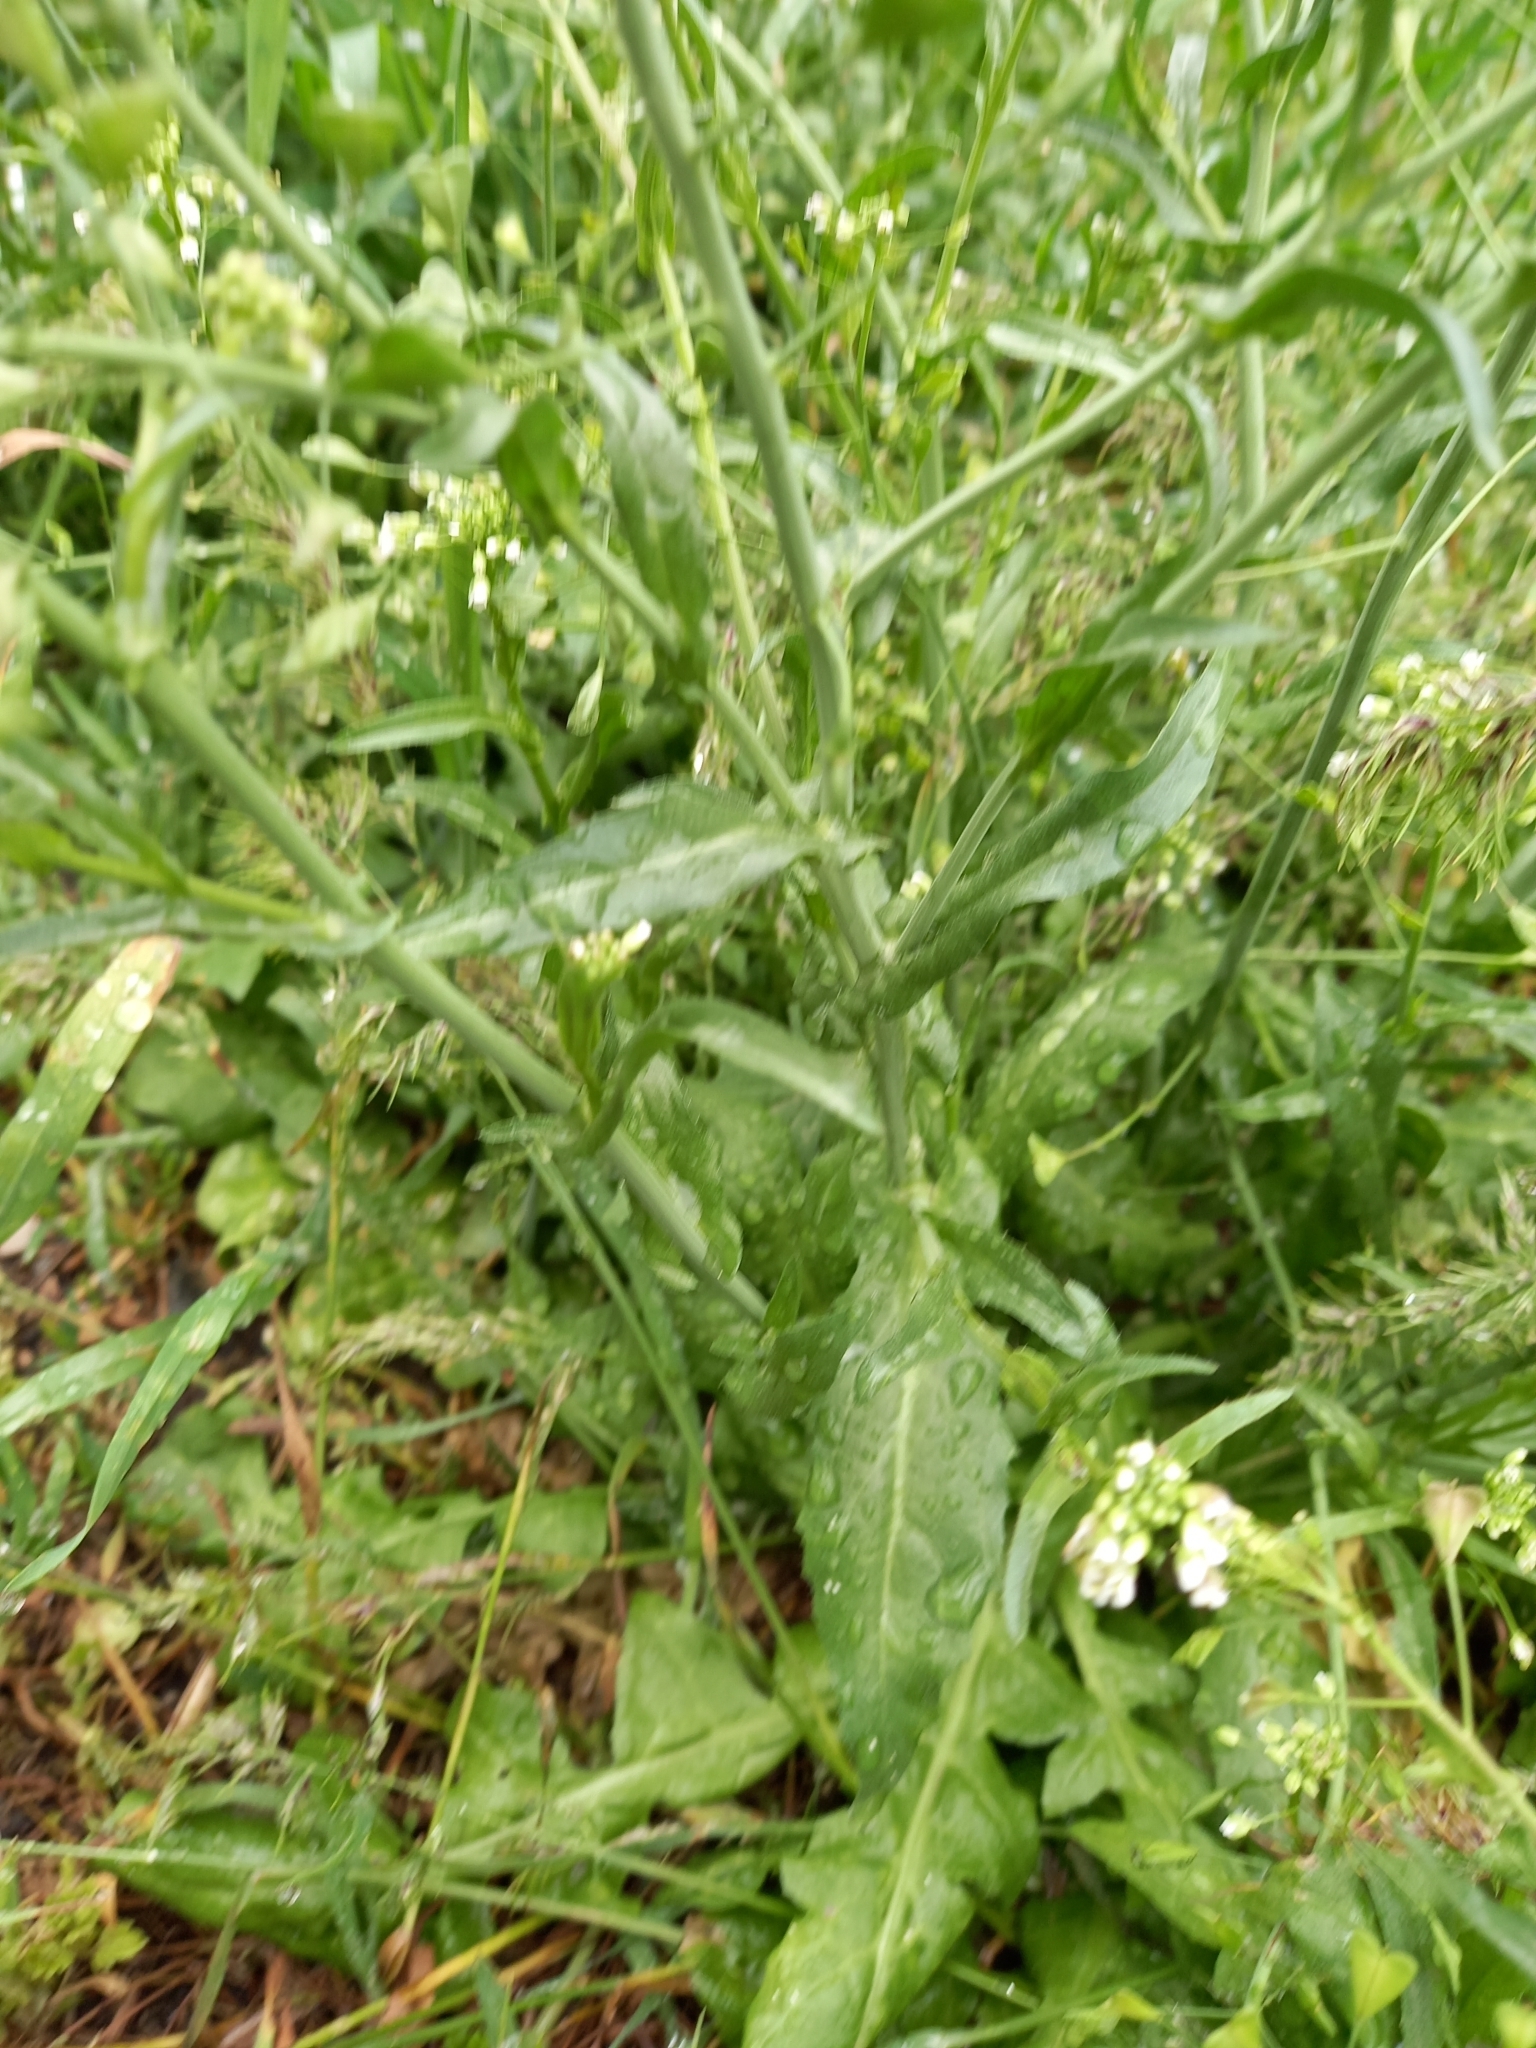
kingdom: Plantae
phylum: Tracheophyta
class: Magnoliopsida
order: Brassicales
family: Brassicaceae
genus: Capsella
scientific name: Capsella bursa-pastoris
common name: Shepherd's purse
